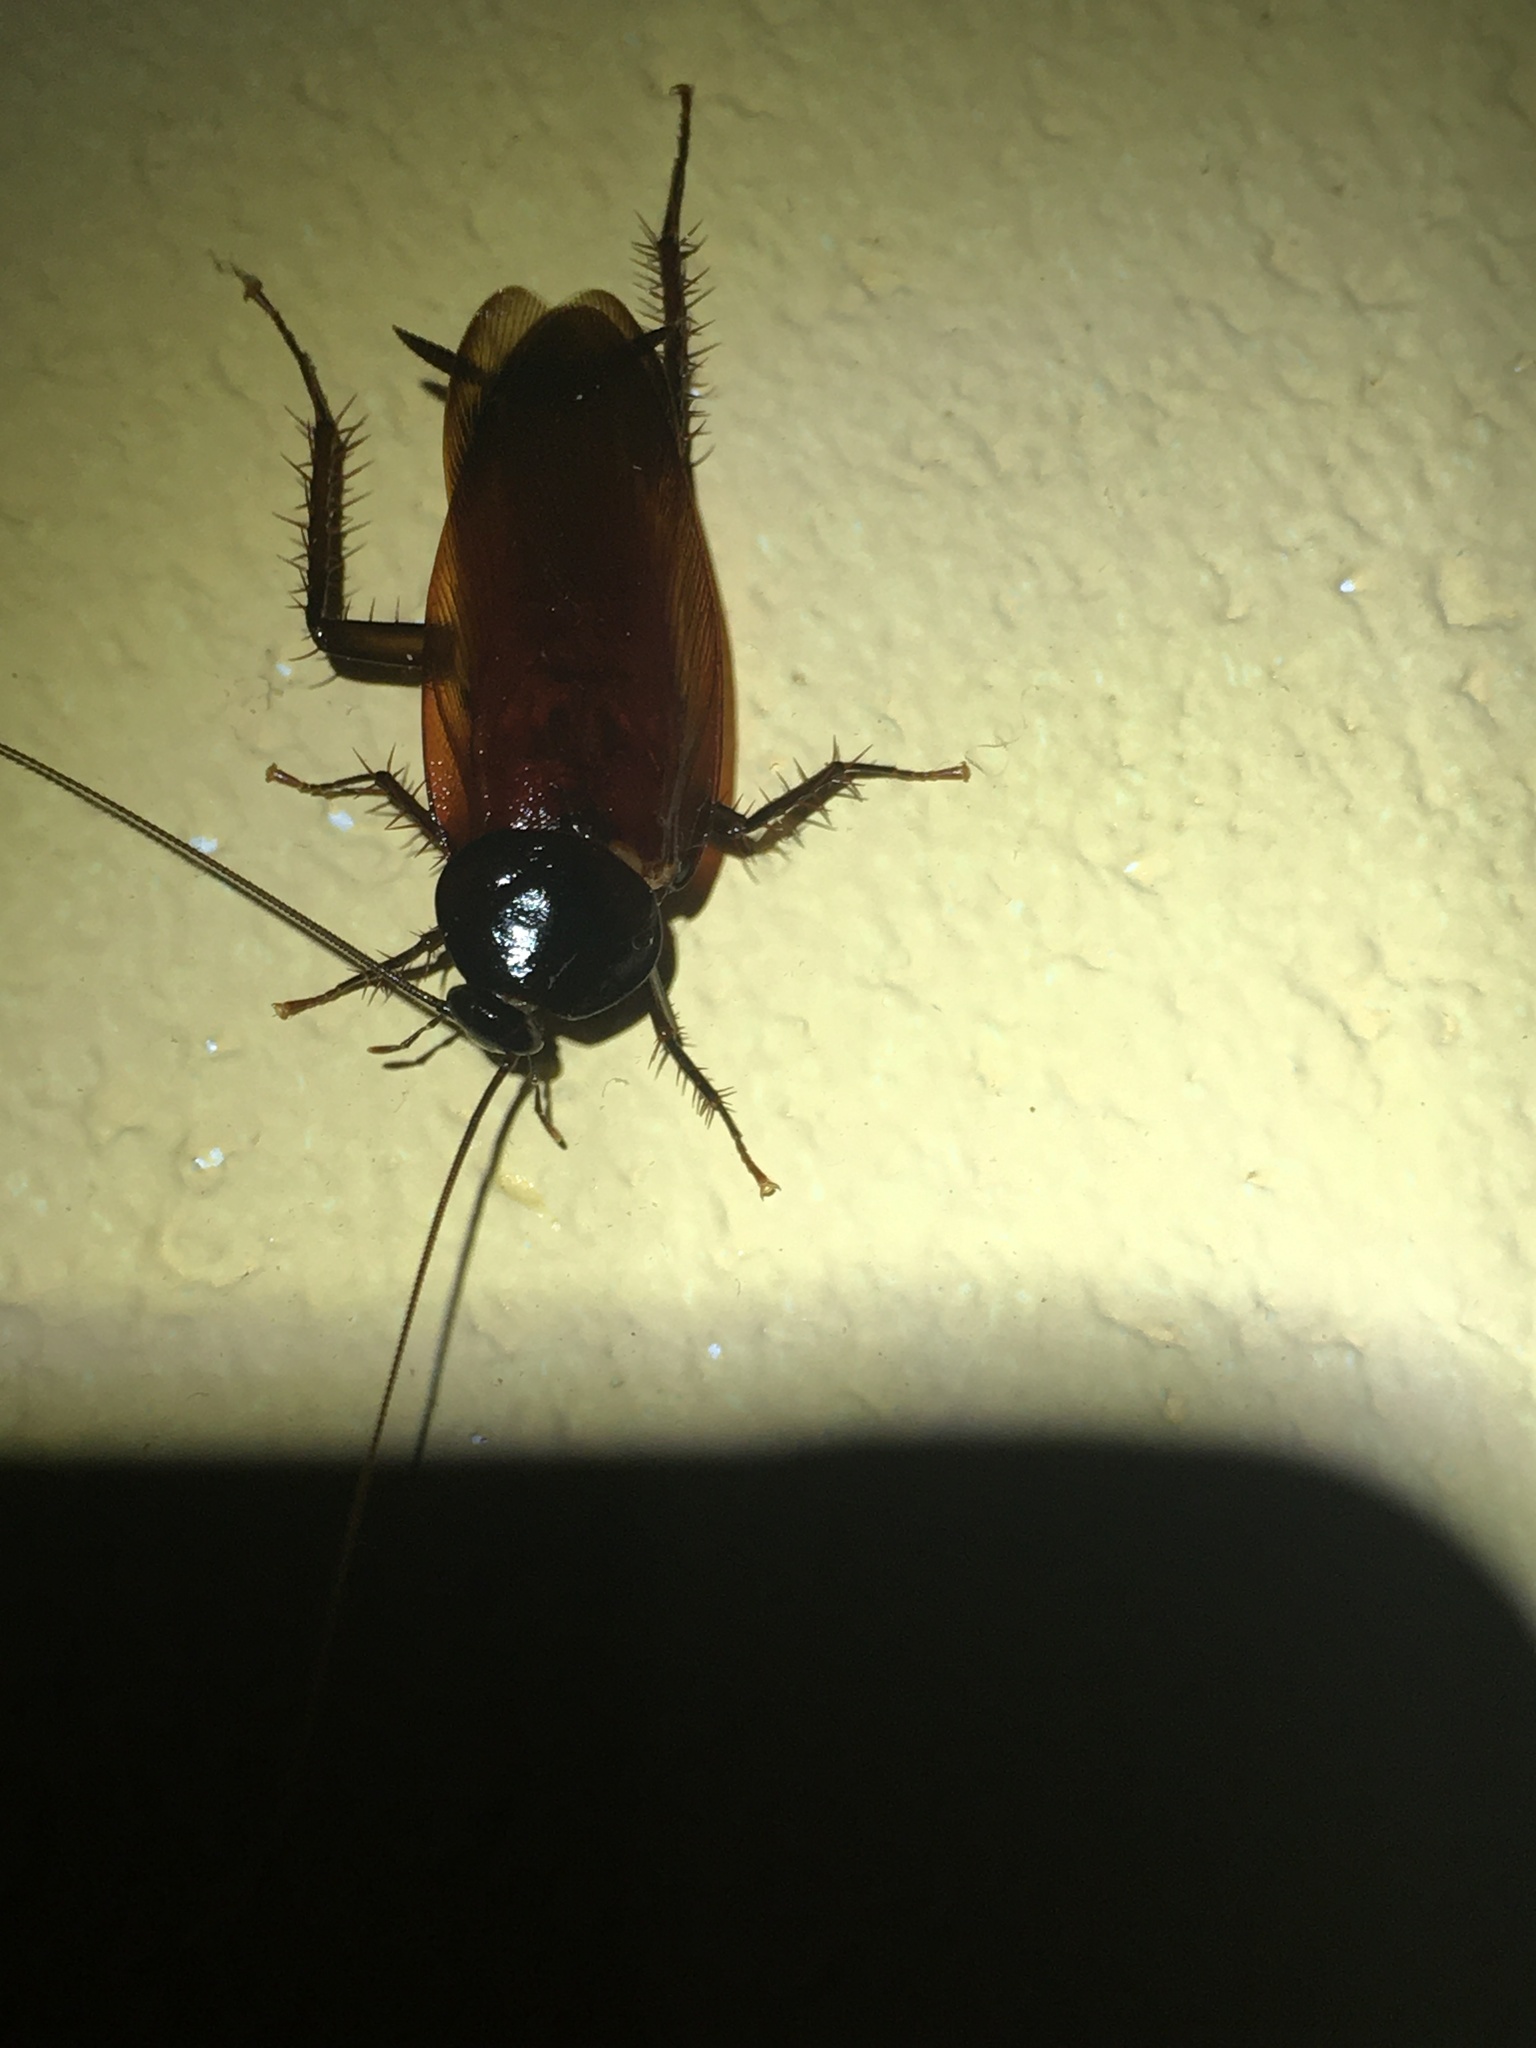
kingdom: Animalia
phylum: Arthropoda
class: Insecta
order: Blattodea
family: Blattidae
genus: Periplaneta
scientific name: Periplaneta fuliginosa
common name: Smokeybrown cockroad
